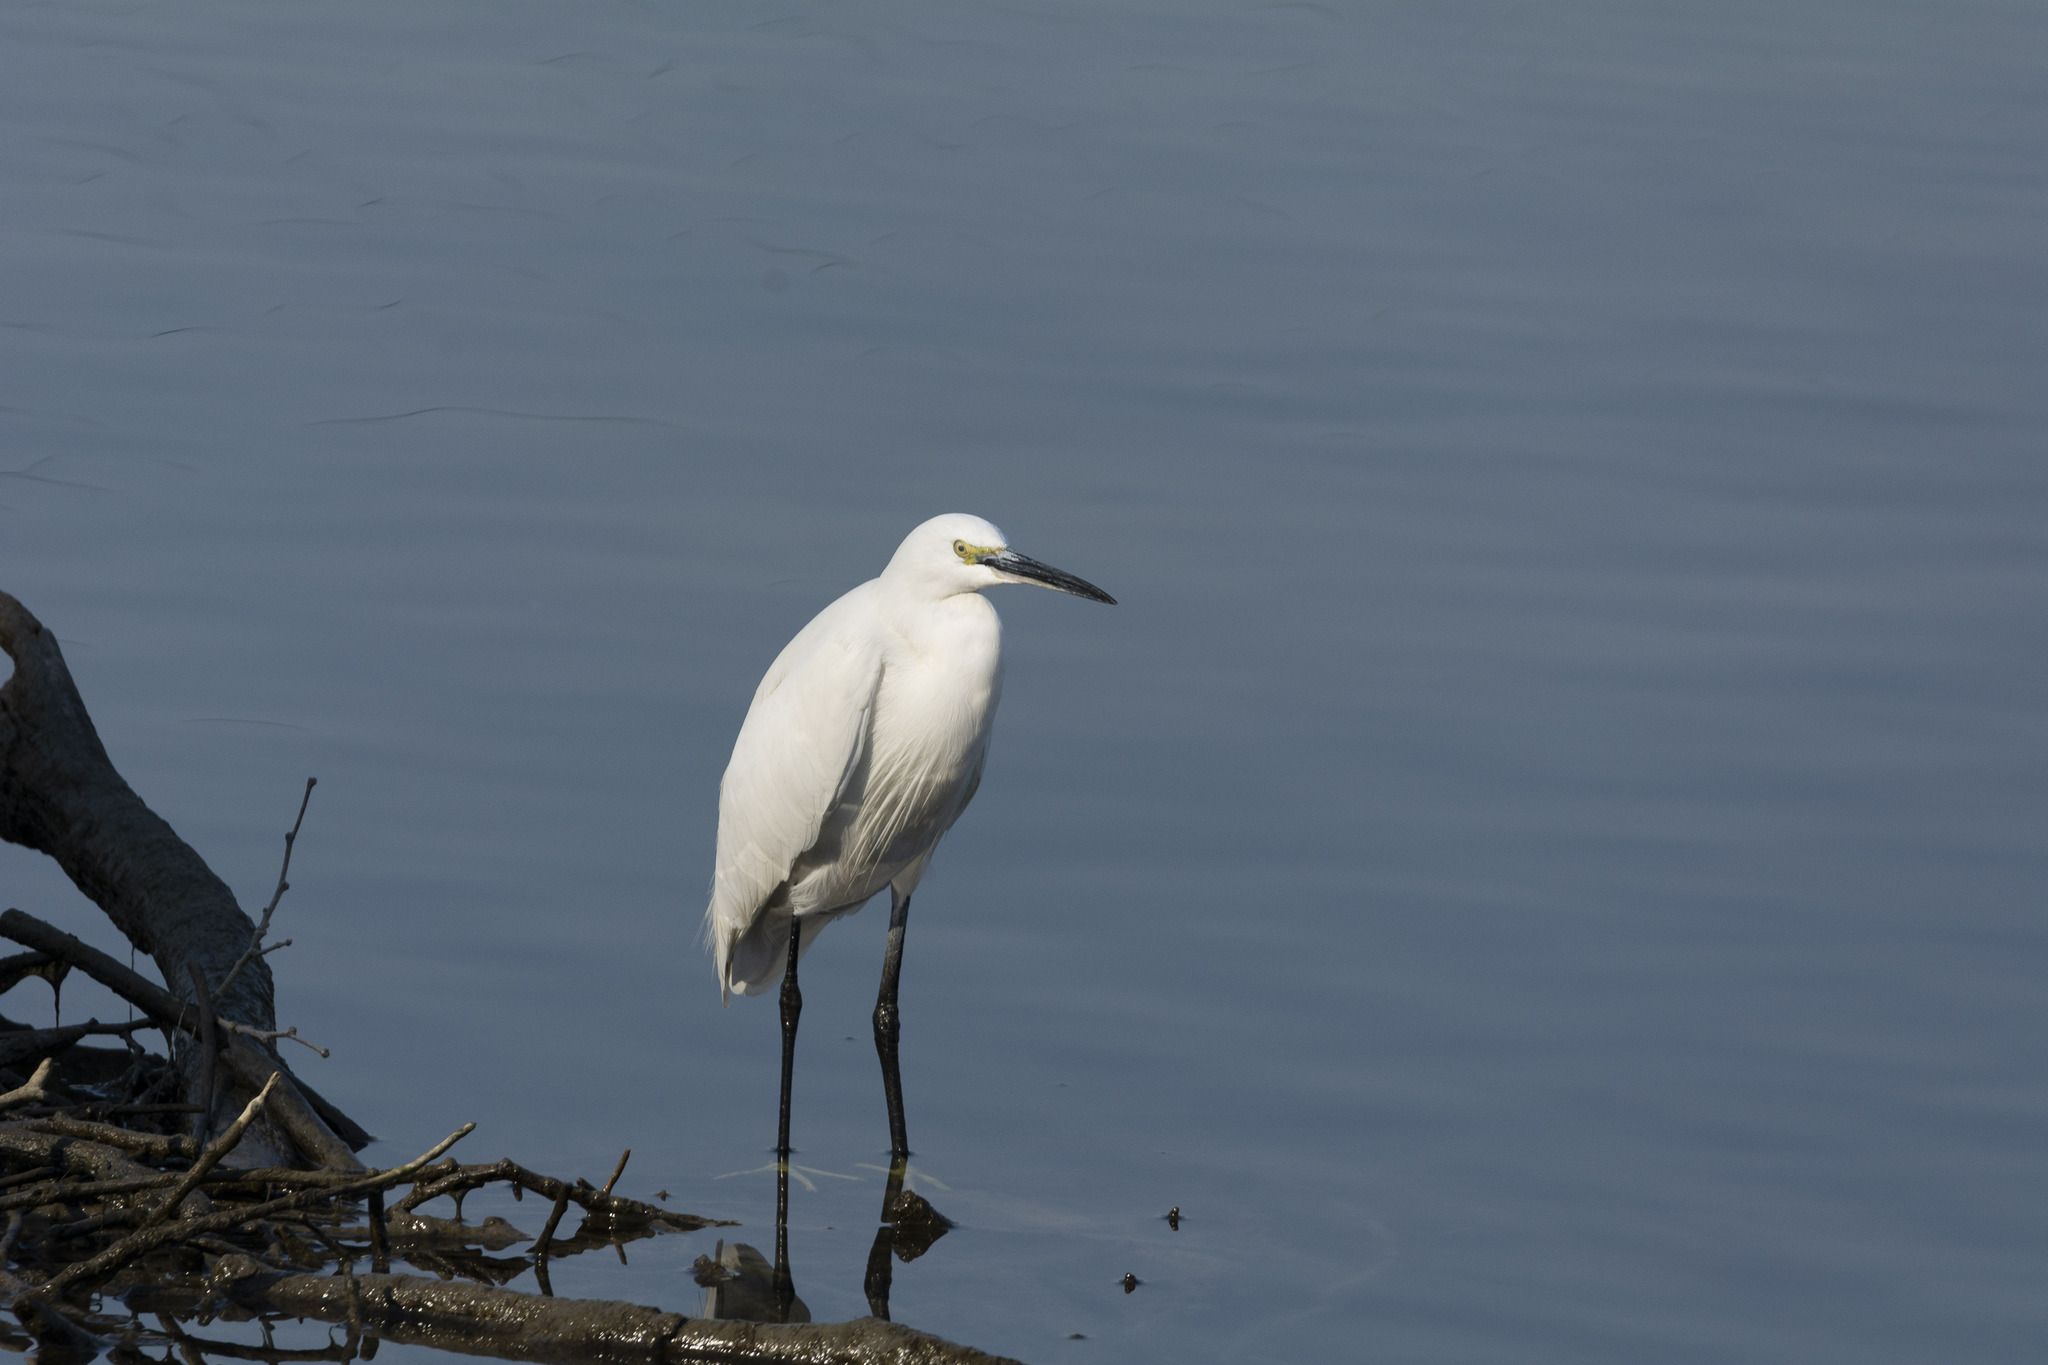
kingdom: Animalia
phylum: Chordata
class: Aves
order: Pelecaniformes
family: Ardeidae
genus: Egretta
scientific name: Egretta garzetta
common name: Little egret
